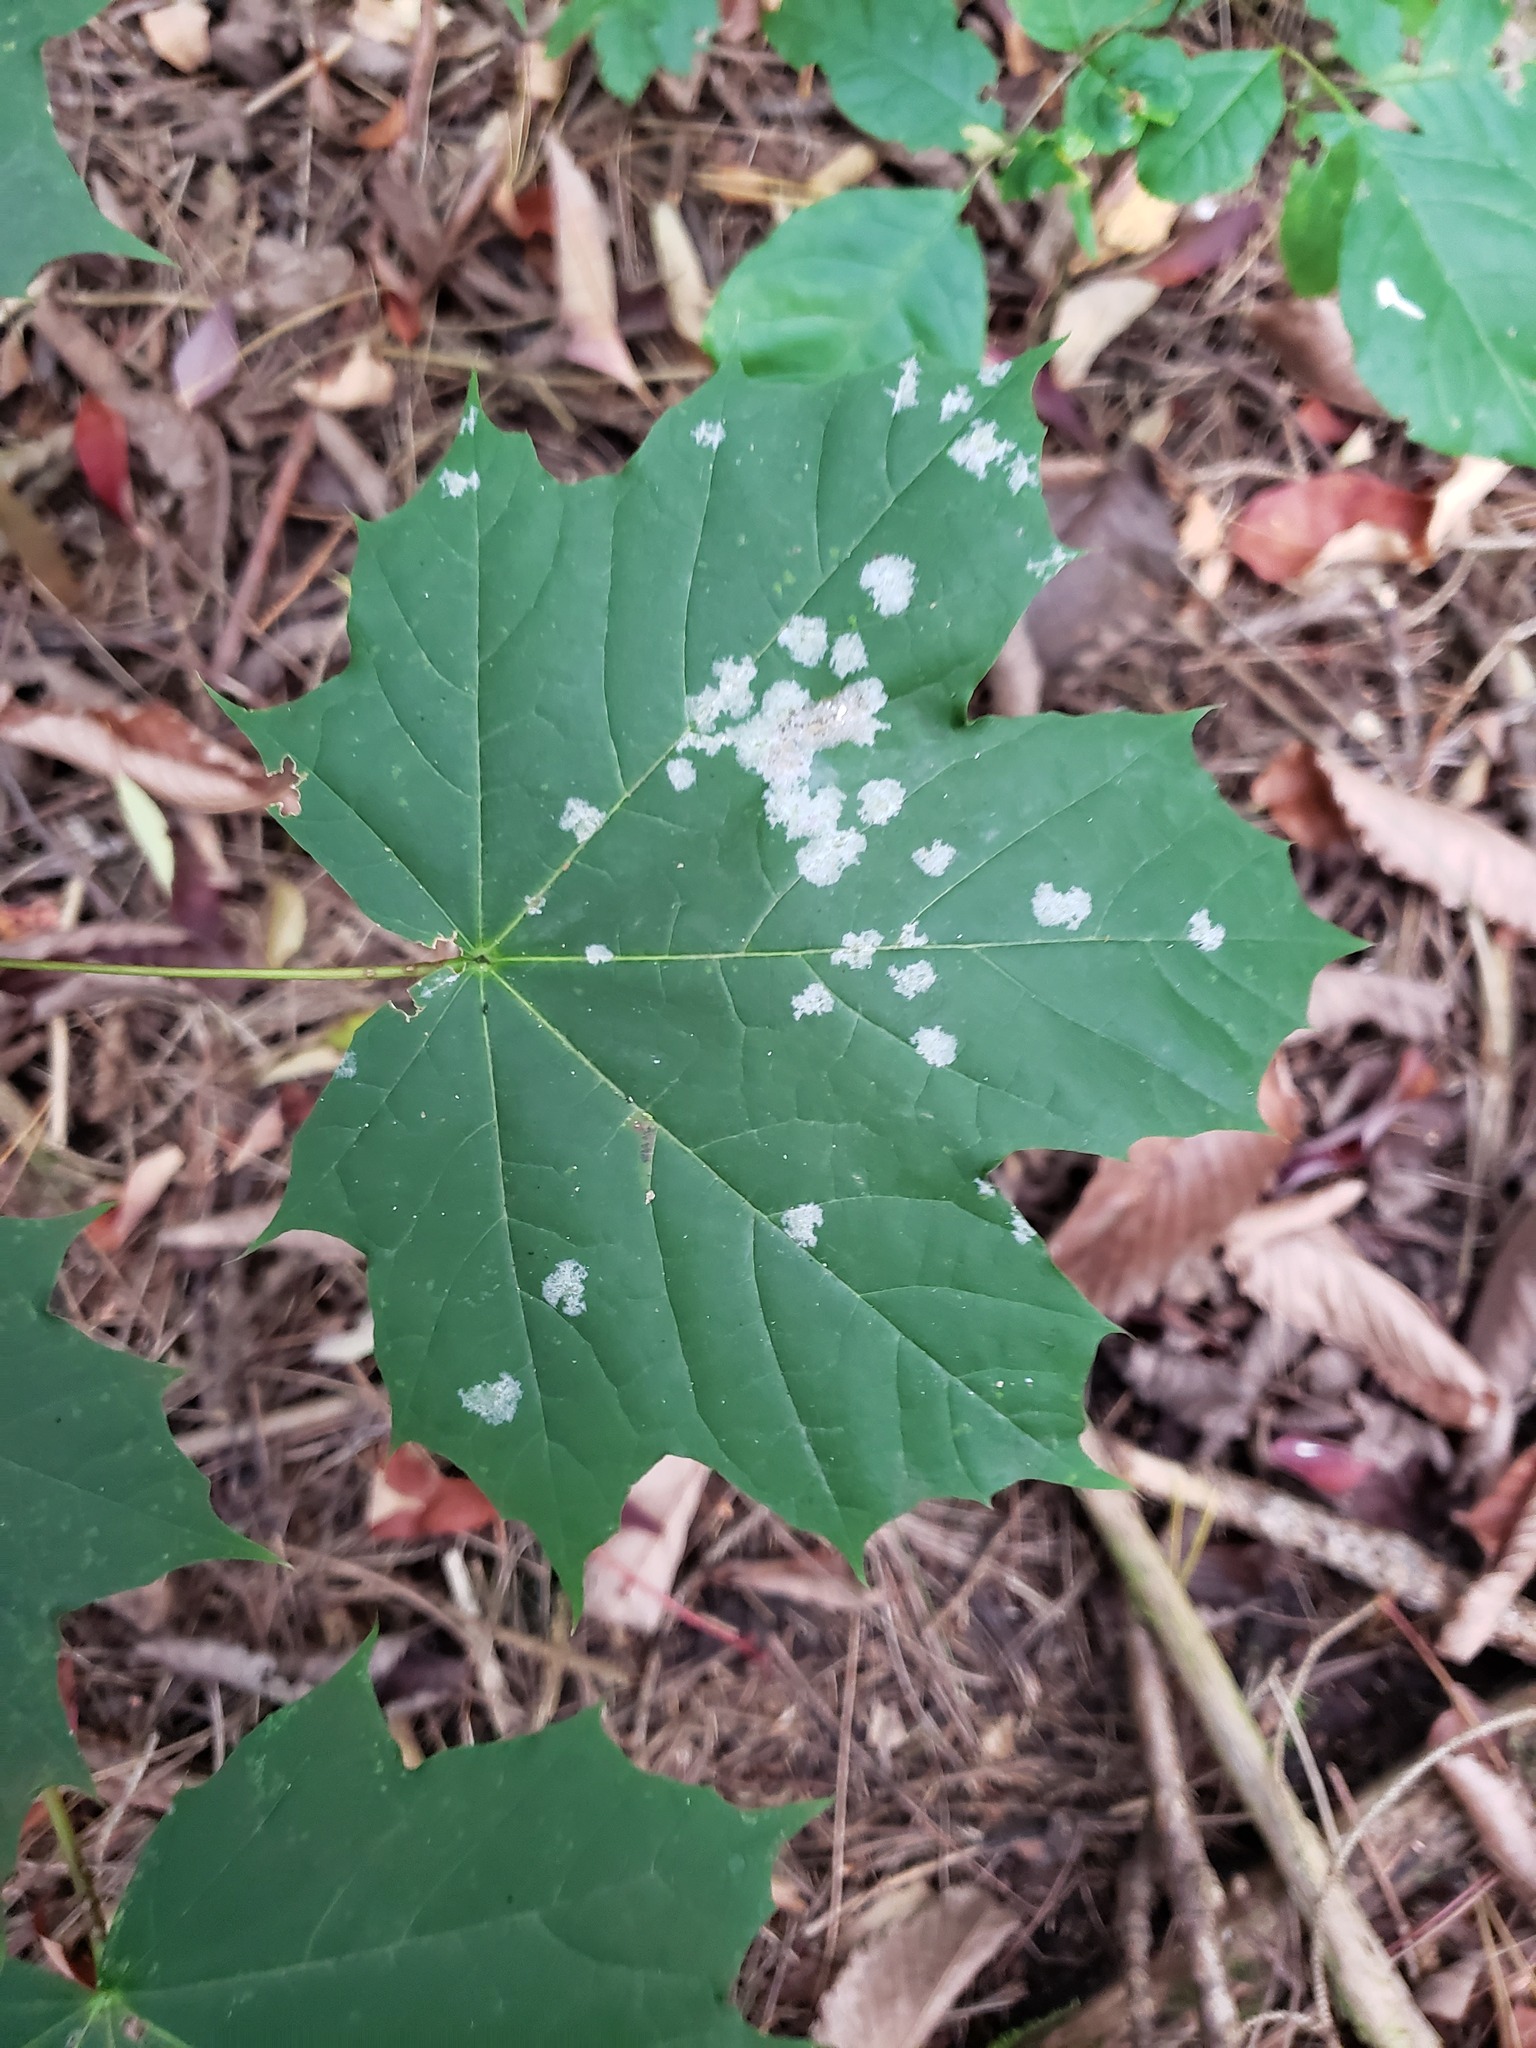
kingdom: Plantae
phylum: Tracheophyta
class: Magnoliopsida
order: Sapindales
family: Sapindaceae
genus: Acer
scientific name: Acer platanoides
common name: Norway maple
